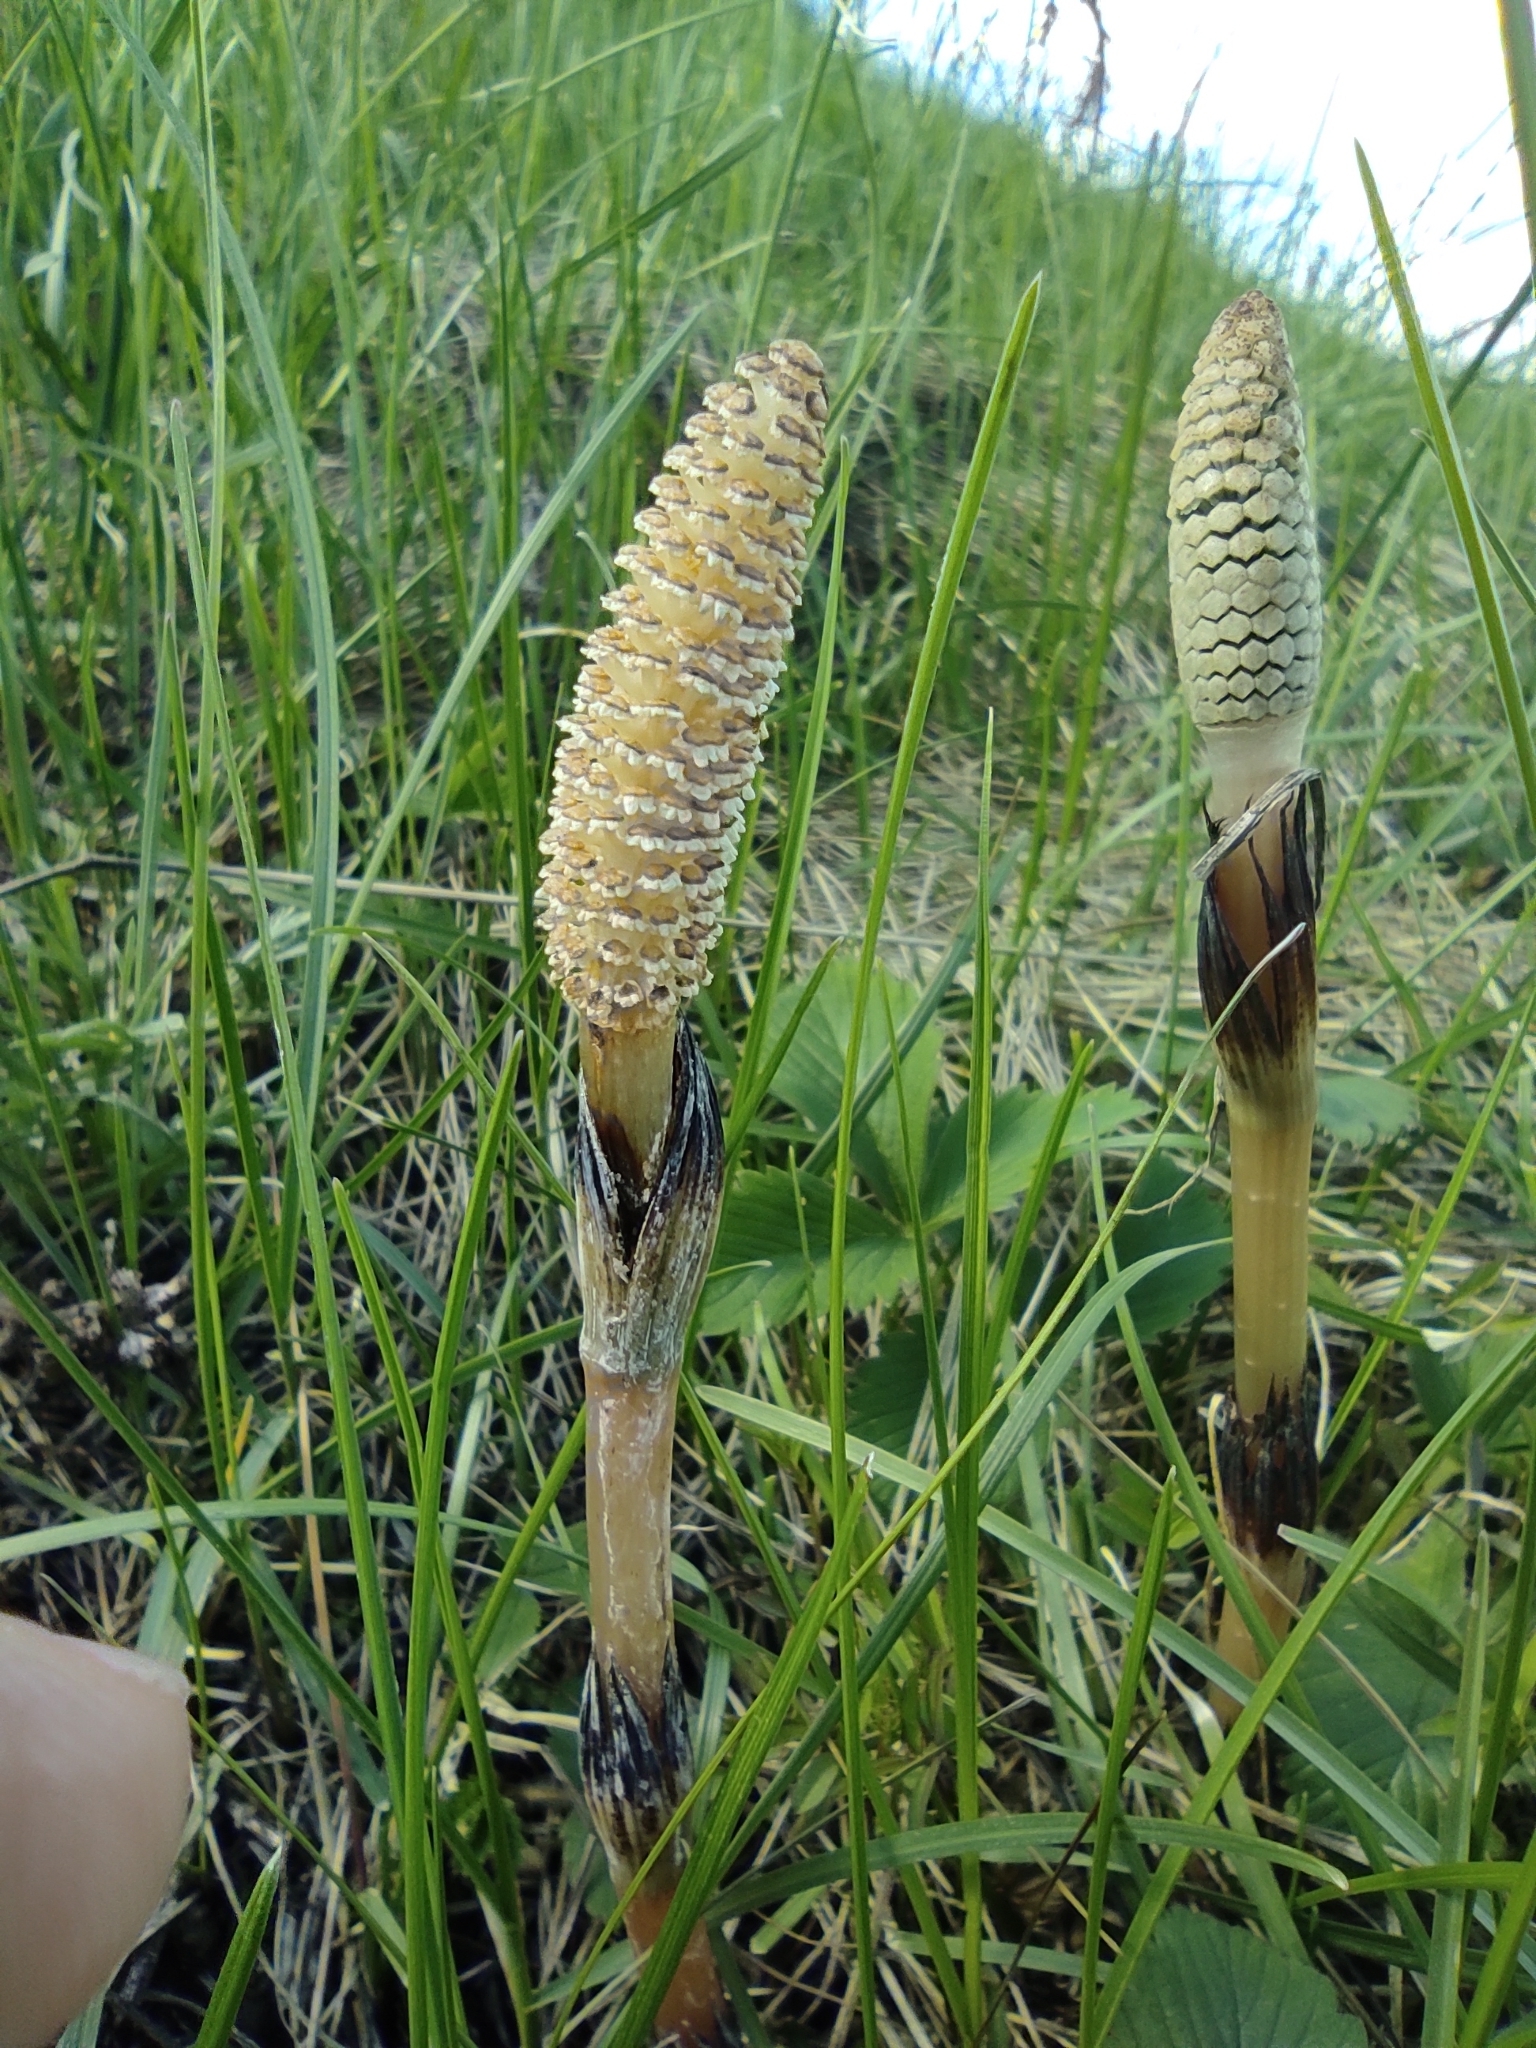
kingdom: Plantae
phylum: Tracheophyta
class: Polypodiopsida
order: Equisetales
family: Equisetaceae
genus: Equisetum
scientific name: Equisetum arvense
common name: Field horsetail
